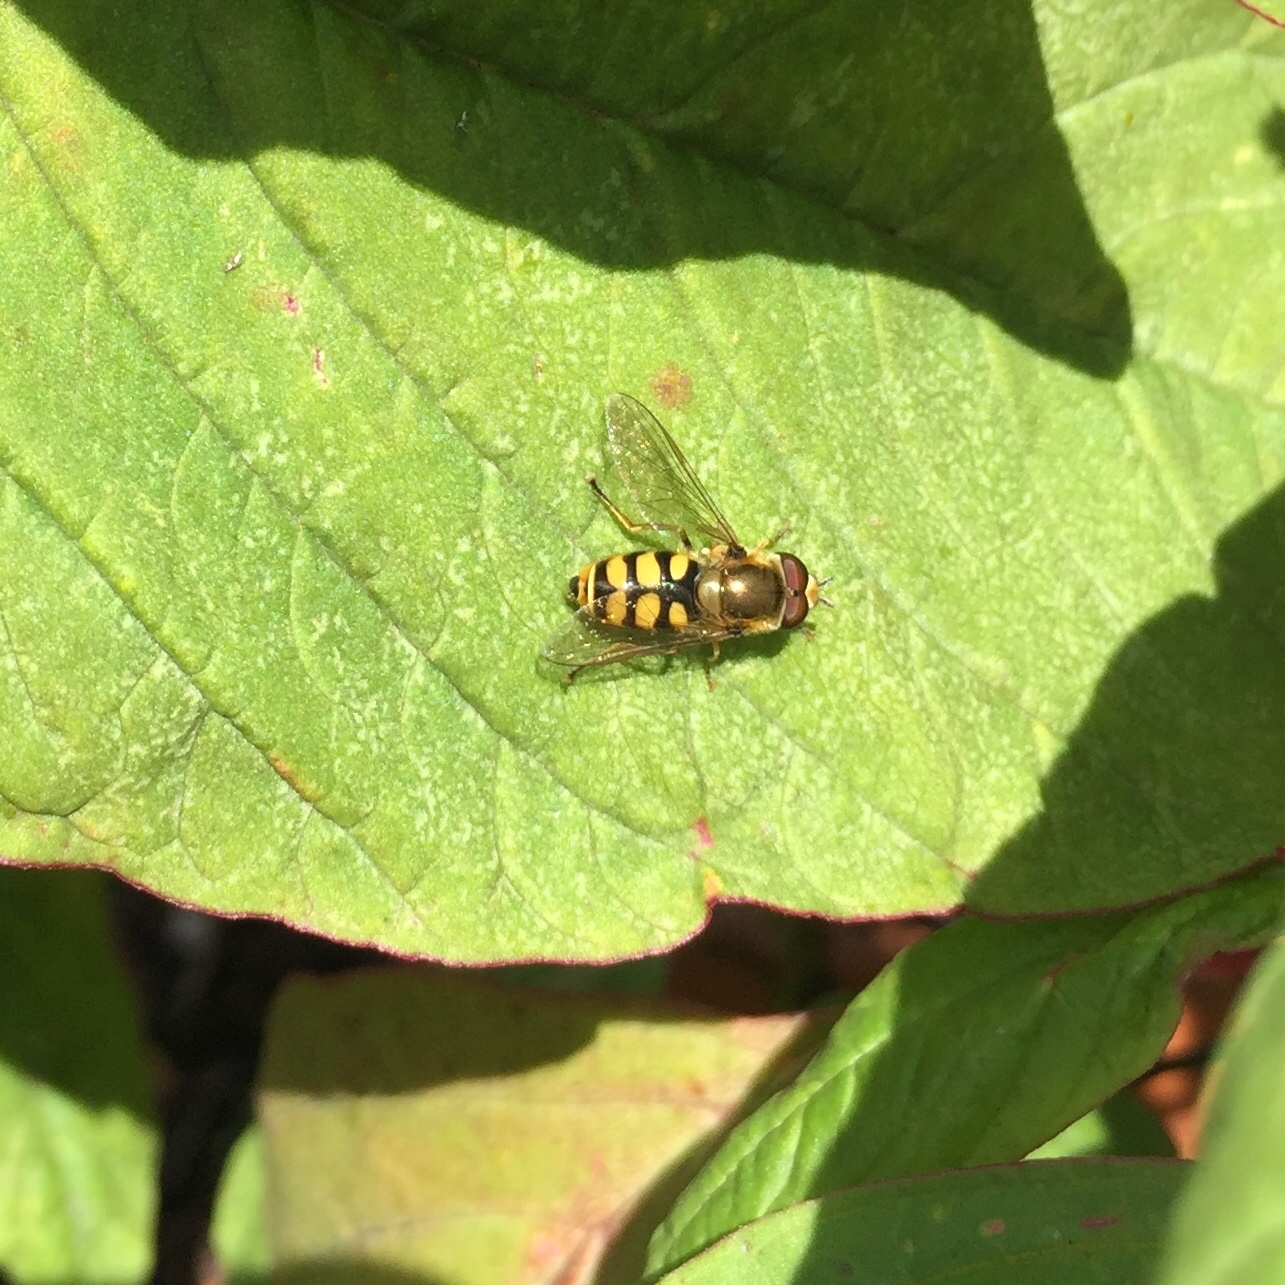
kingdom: Animalia
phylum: Arthropoda
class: Insecta
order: Diptera
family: Syrphidae
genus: Eupeodes
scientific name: Eupeodes corollae
